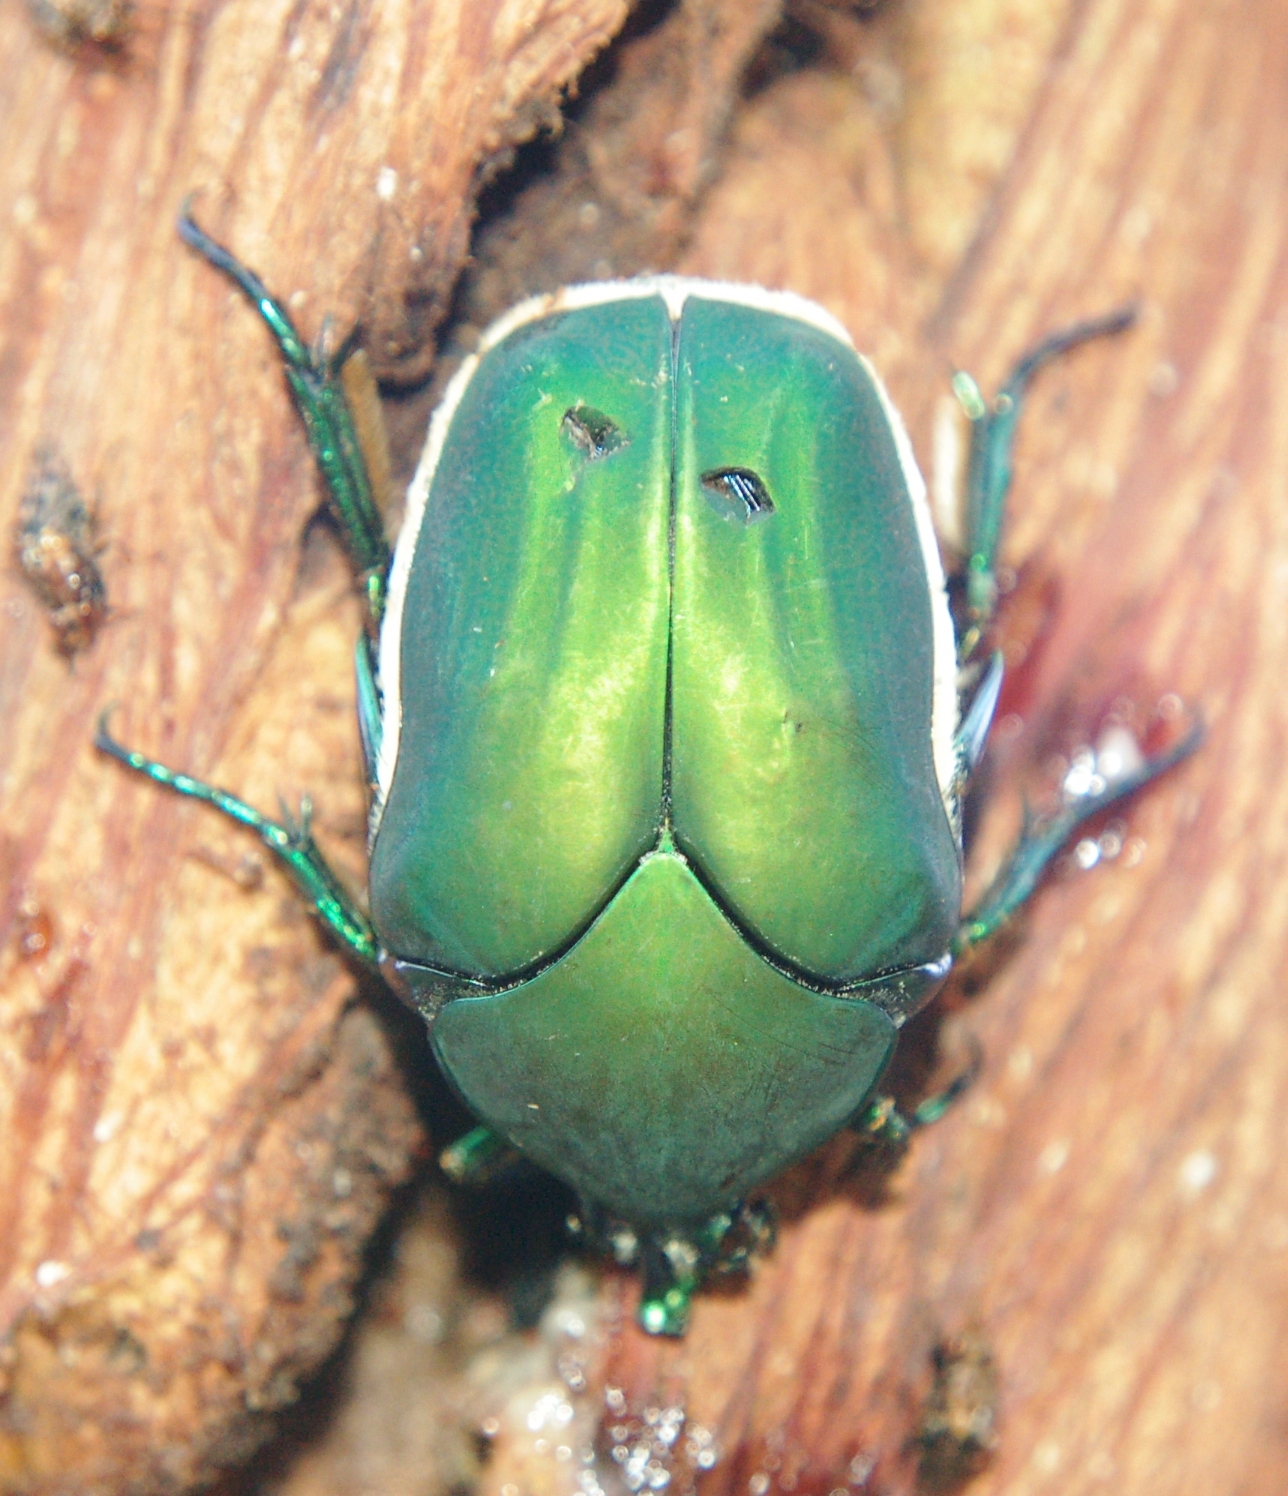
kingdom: Animalia
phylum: Arthropoda
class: Insecta
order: Coleoptera
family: Scarabaeidae
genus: Cotinis
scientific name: Cotinis mutabilis
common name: Figeater beetle
